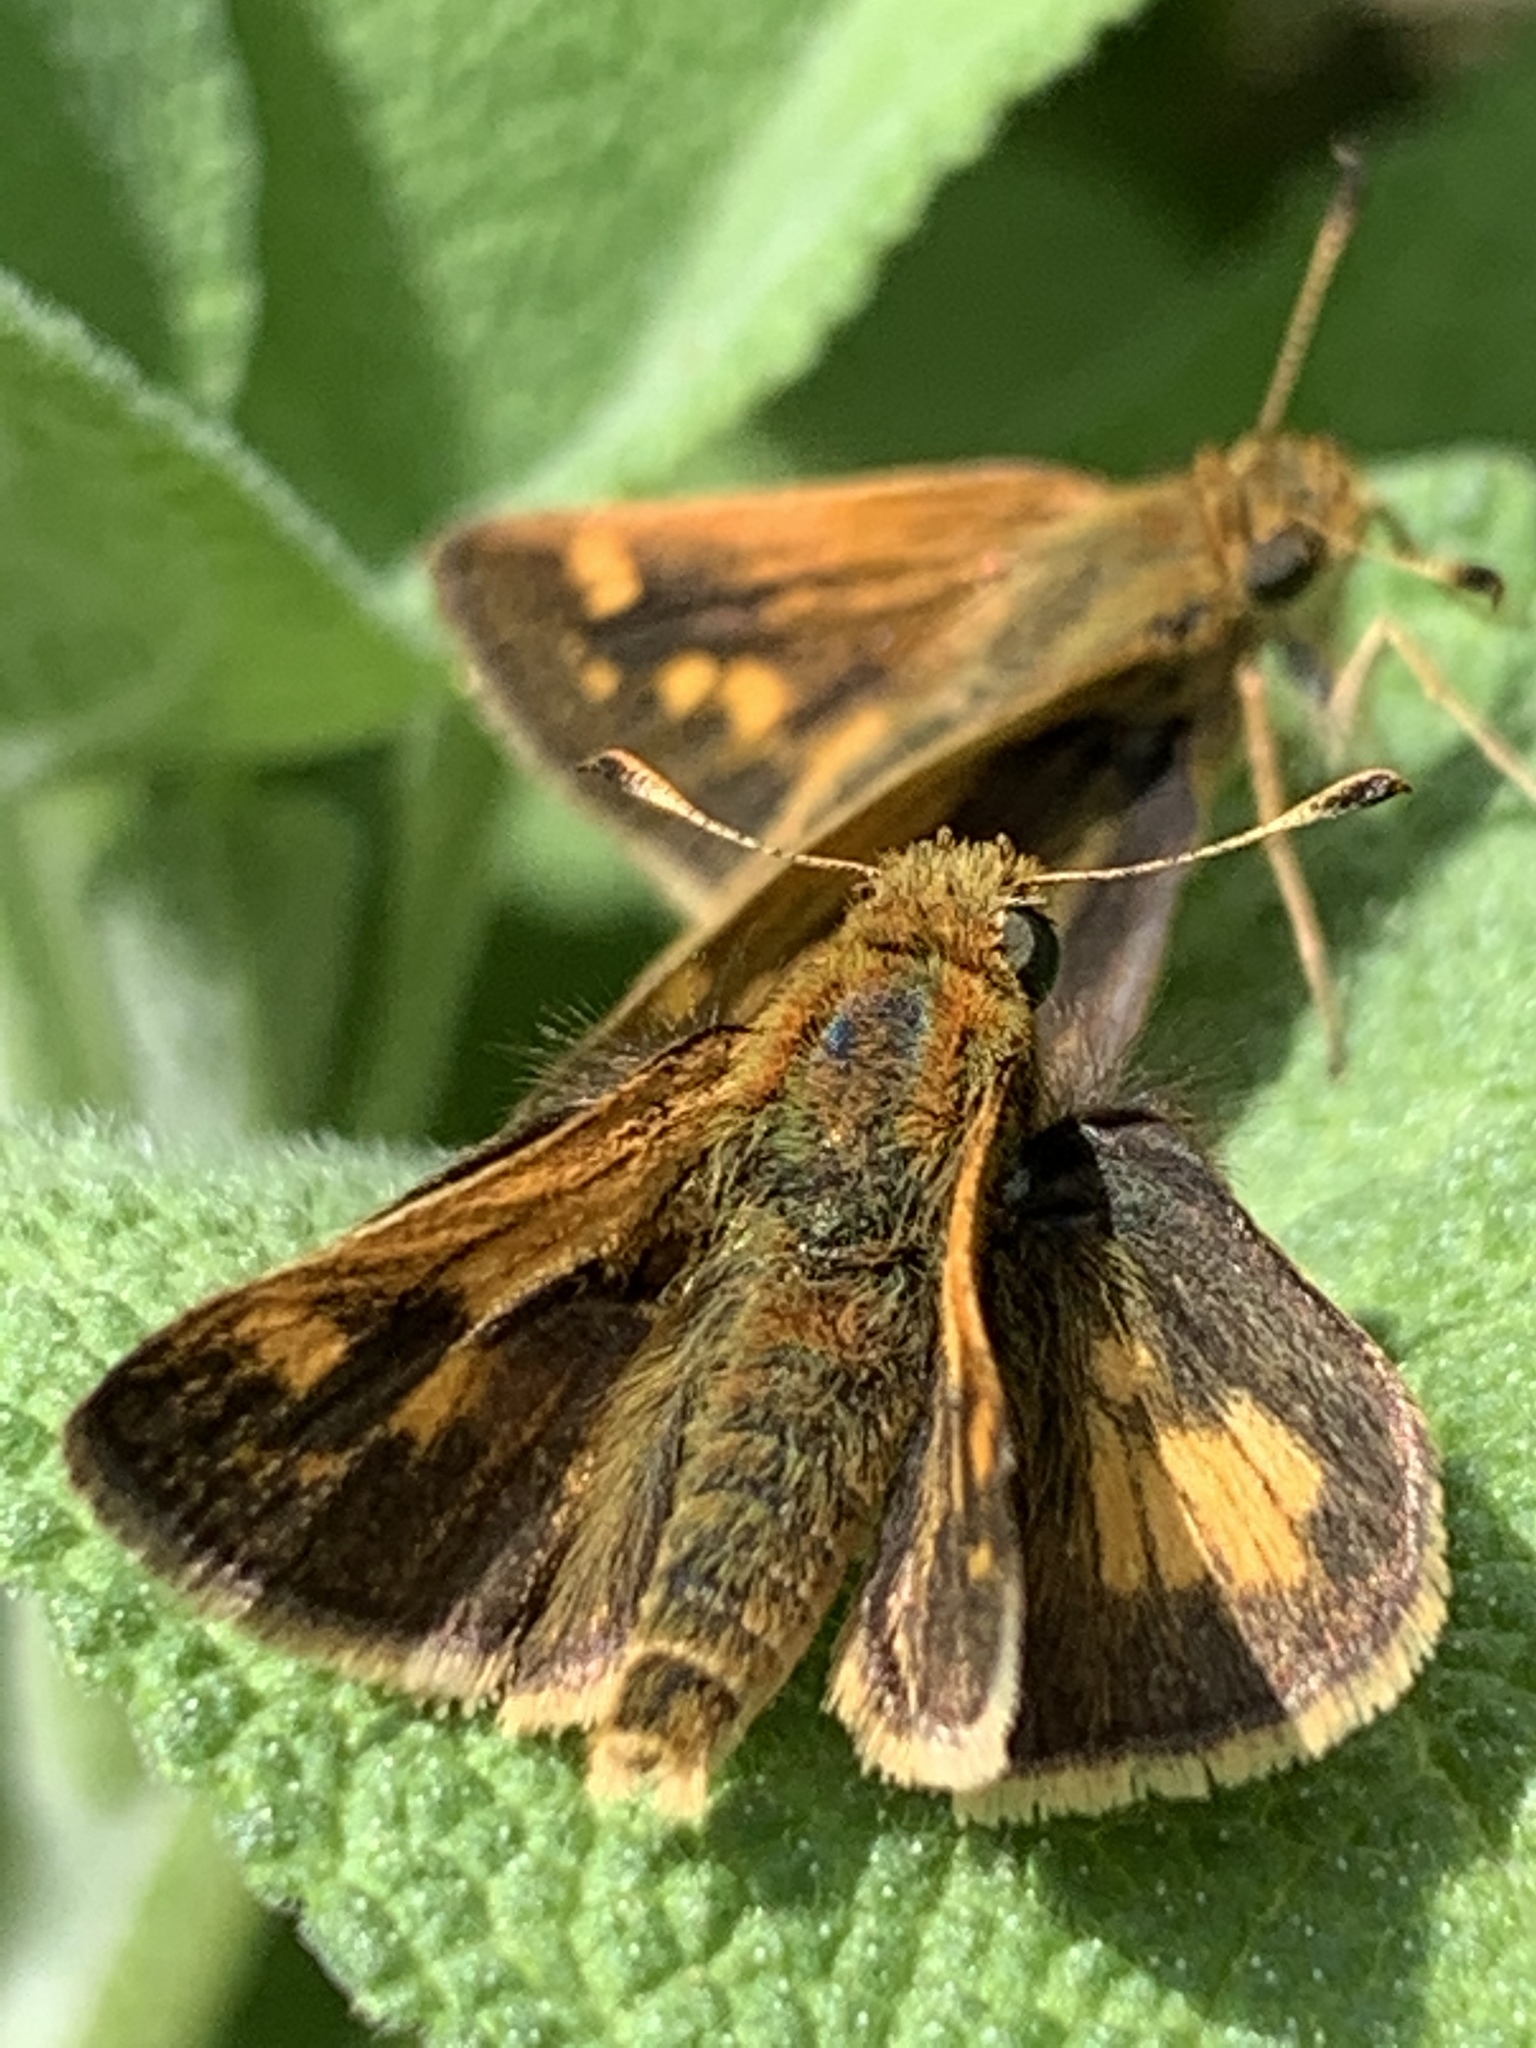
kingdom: Animalia
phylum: Arthropoda
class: Insecta
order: Lepidoptera
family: Hesperiidae
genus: Polites
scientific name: Polites coras
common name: Peck's skipper
